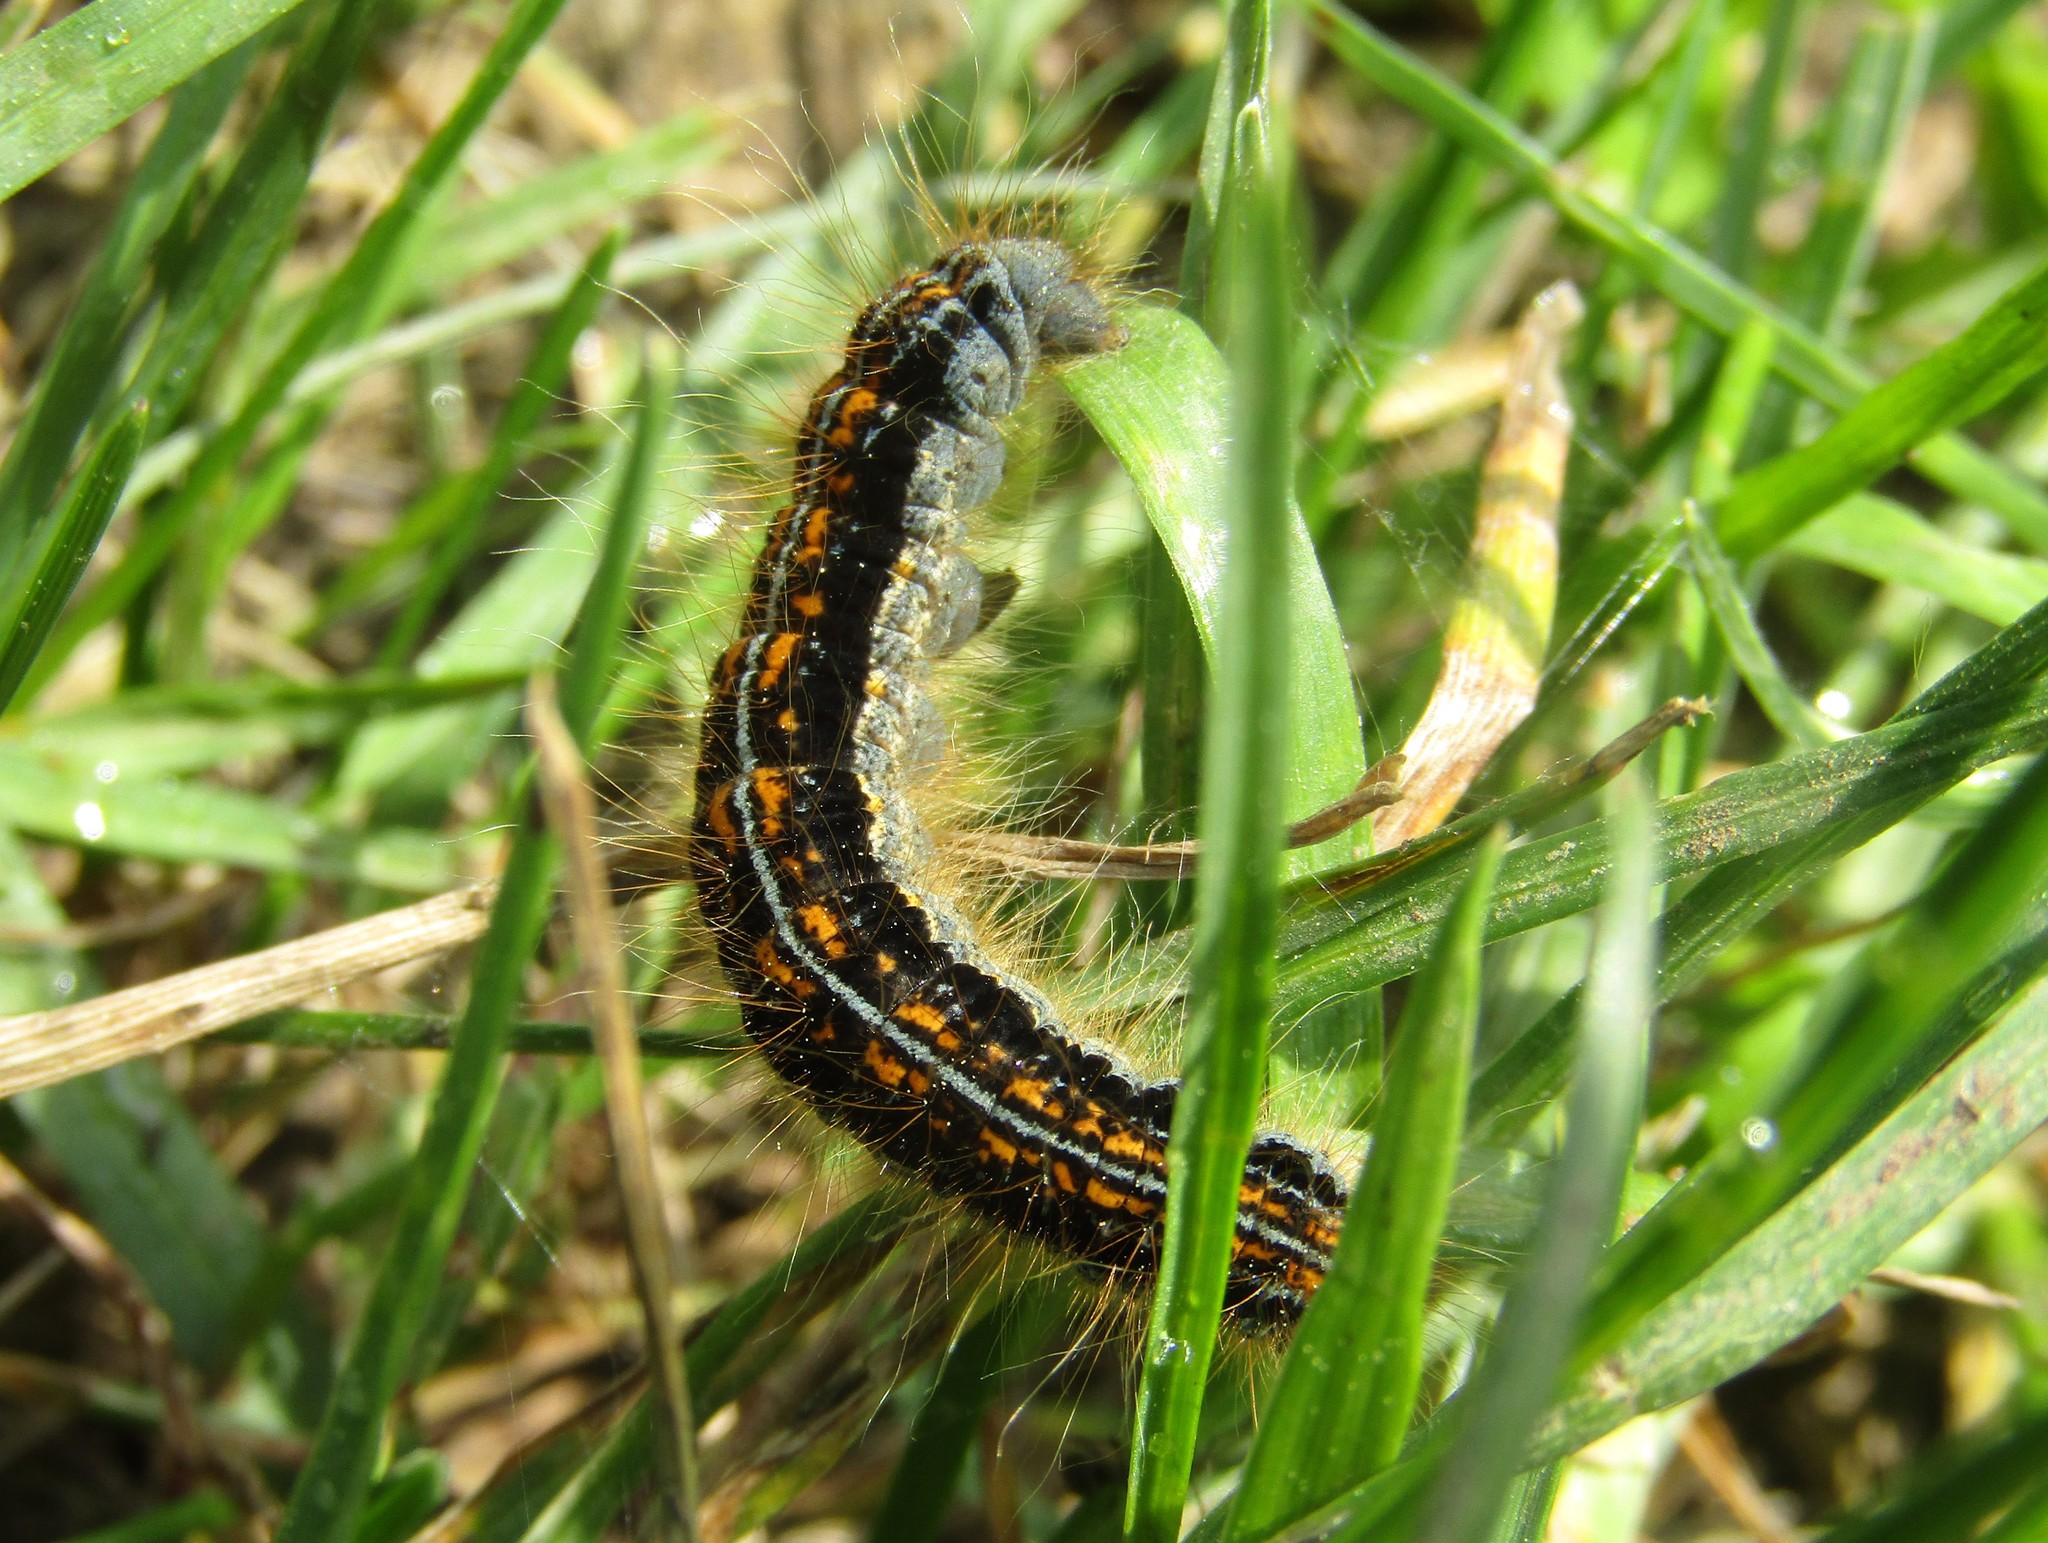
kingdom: Animalia
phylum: Arthropoda
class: Insecta
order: Lepidoptera
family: Lasiocampidae
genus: Malacosoma
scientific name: Malacosoma castrense
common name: Ground lackey
